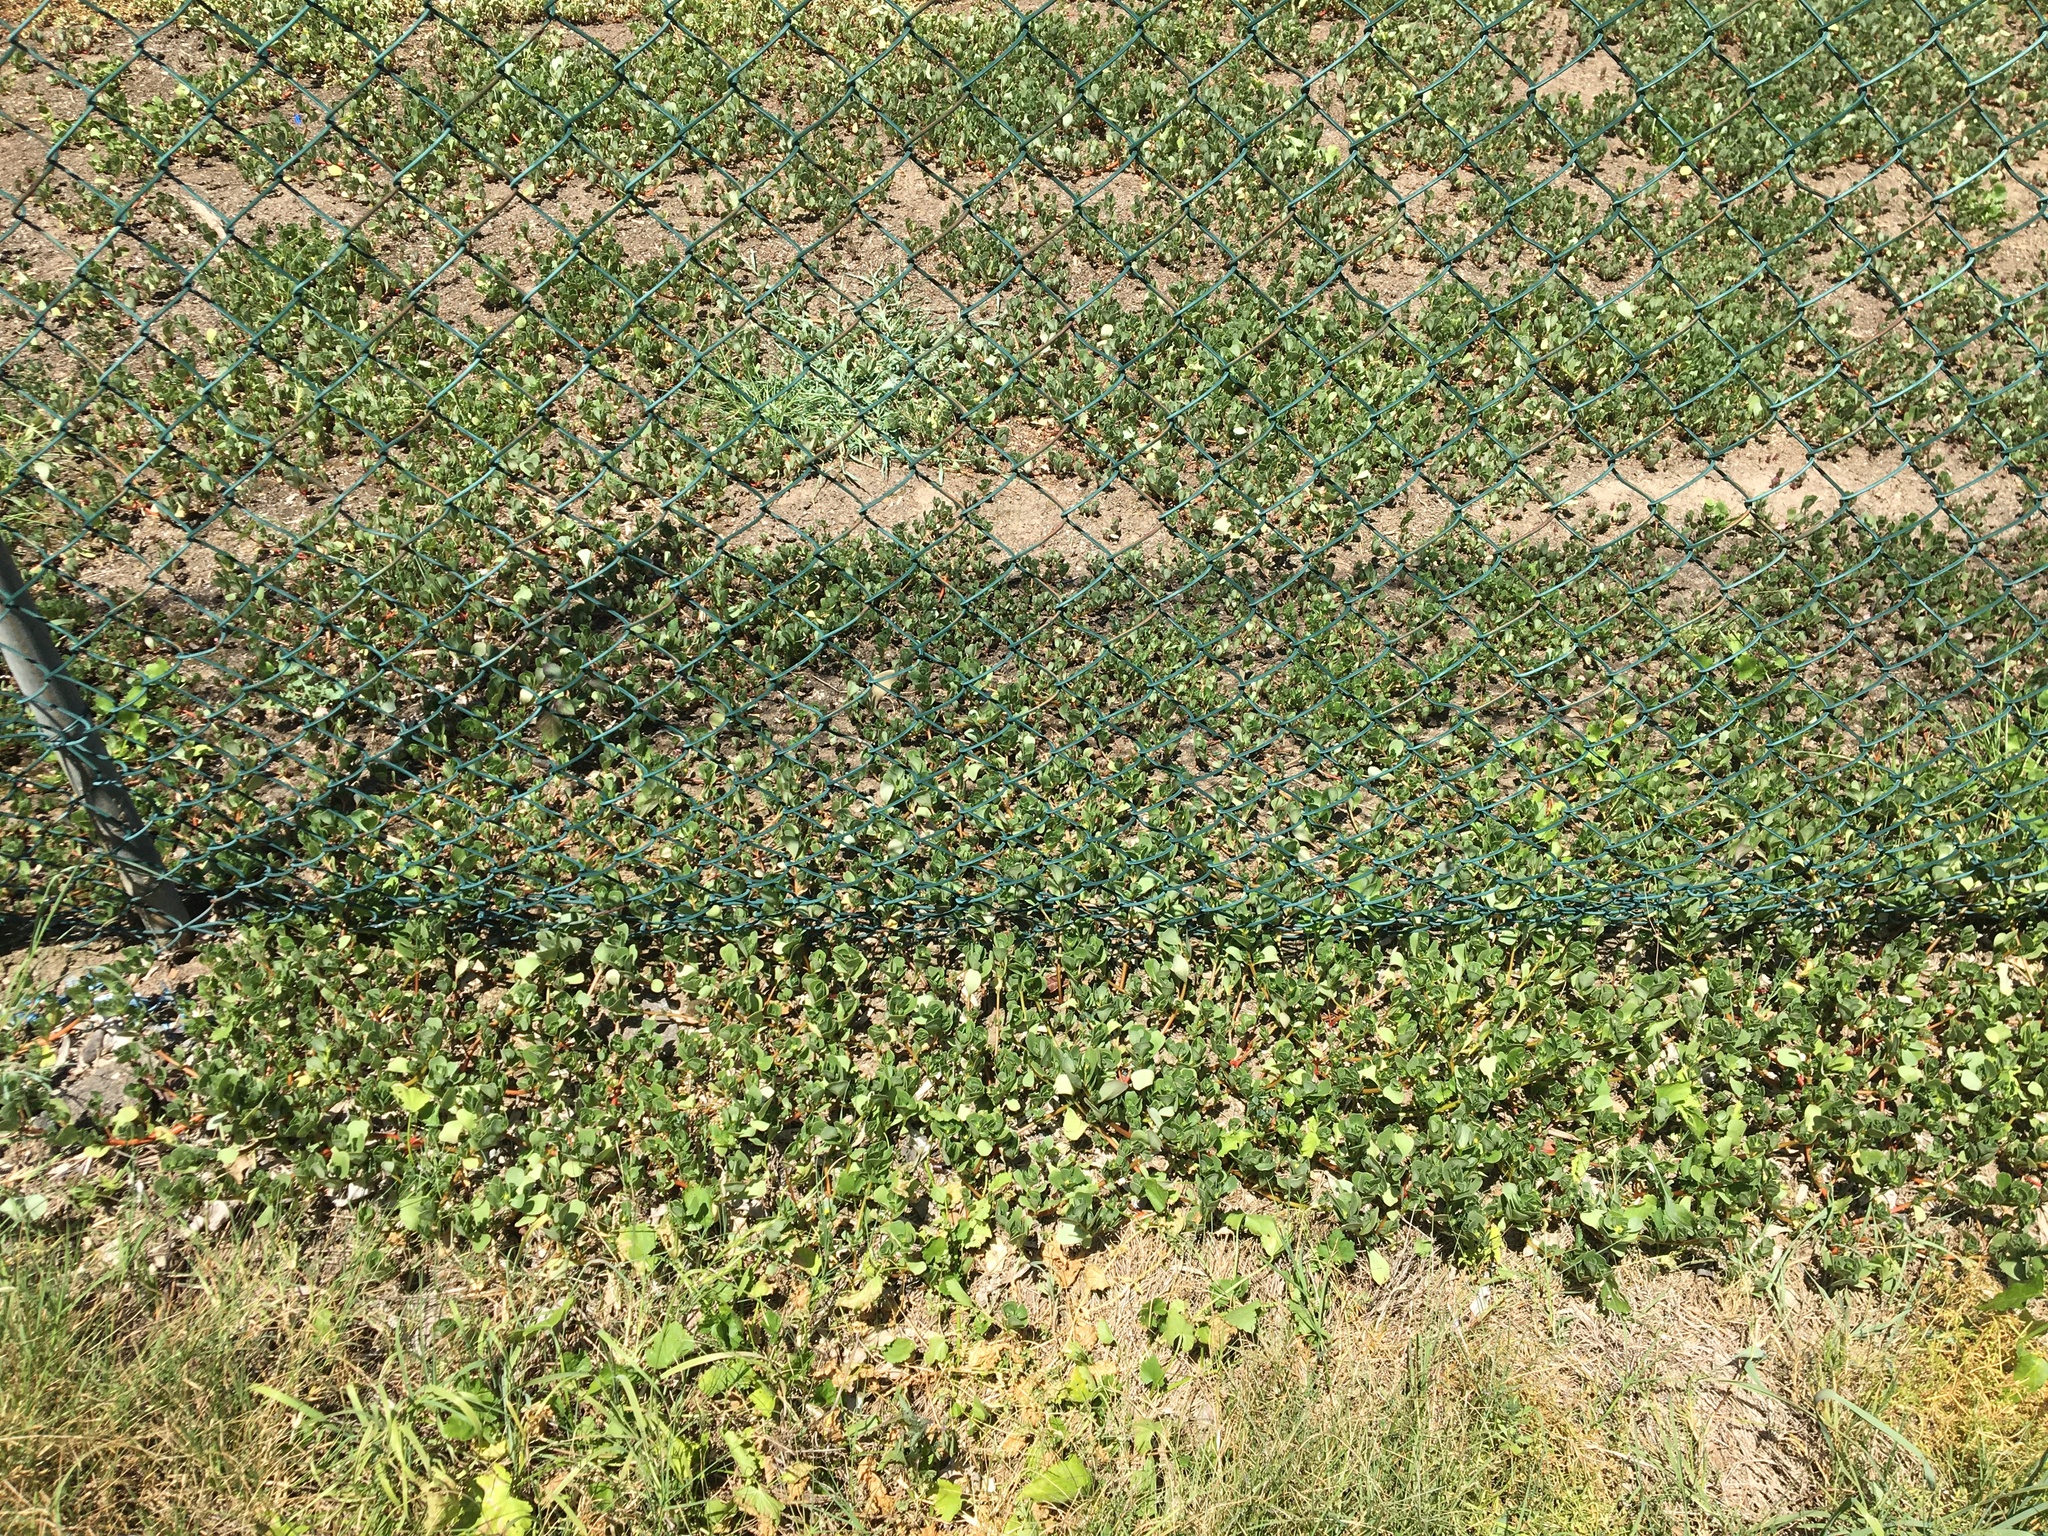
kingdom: Plantae
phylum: Tracheophyta
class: Magnoliopsida
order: Caryophyllales
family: Portulacaceae
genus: Portulaca
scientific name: Portulaca oleracea
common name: Common purslane
